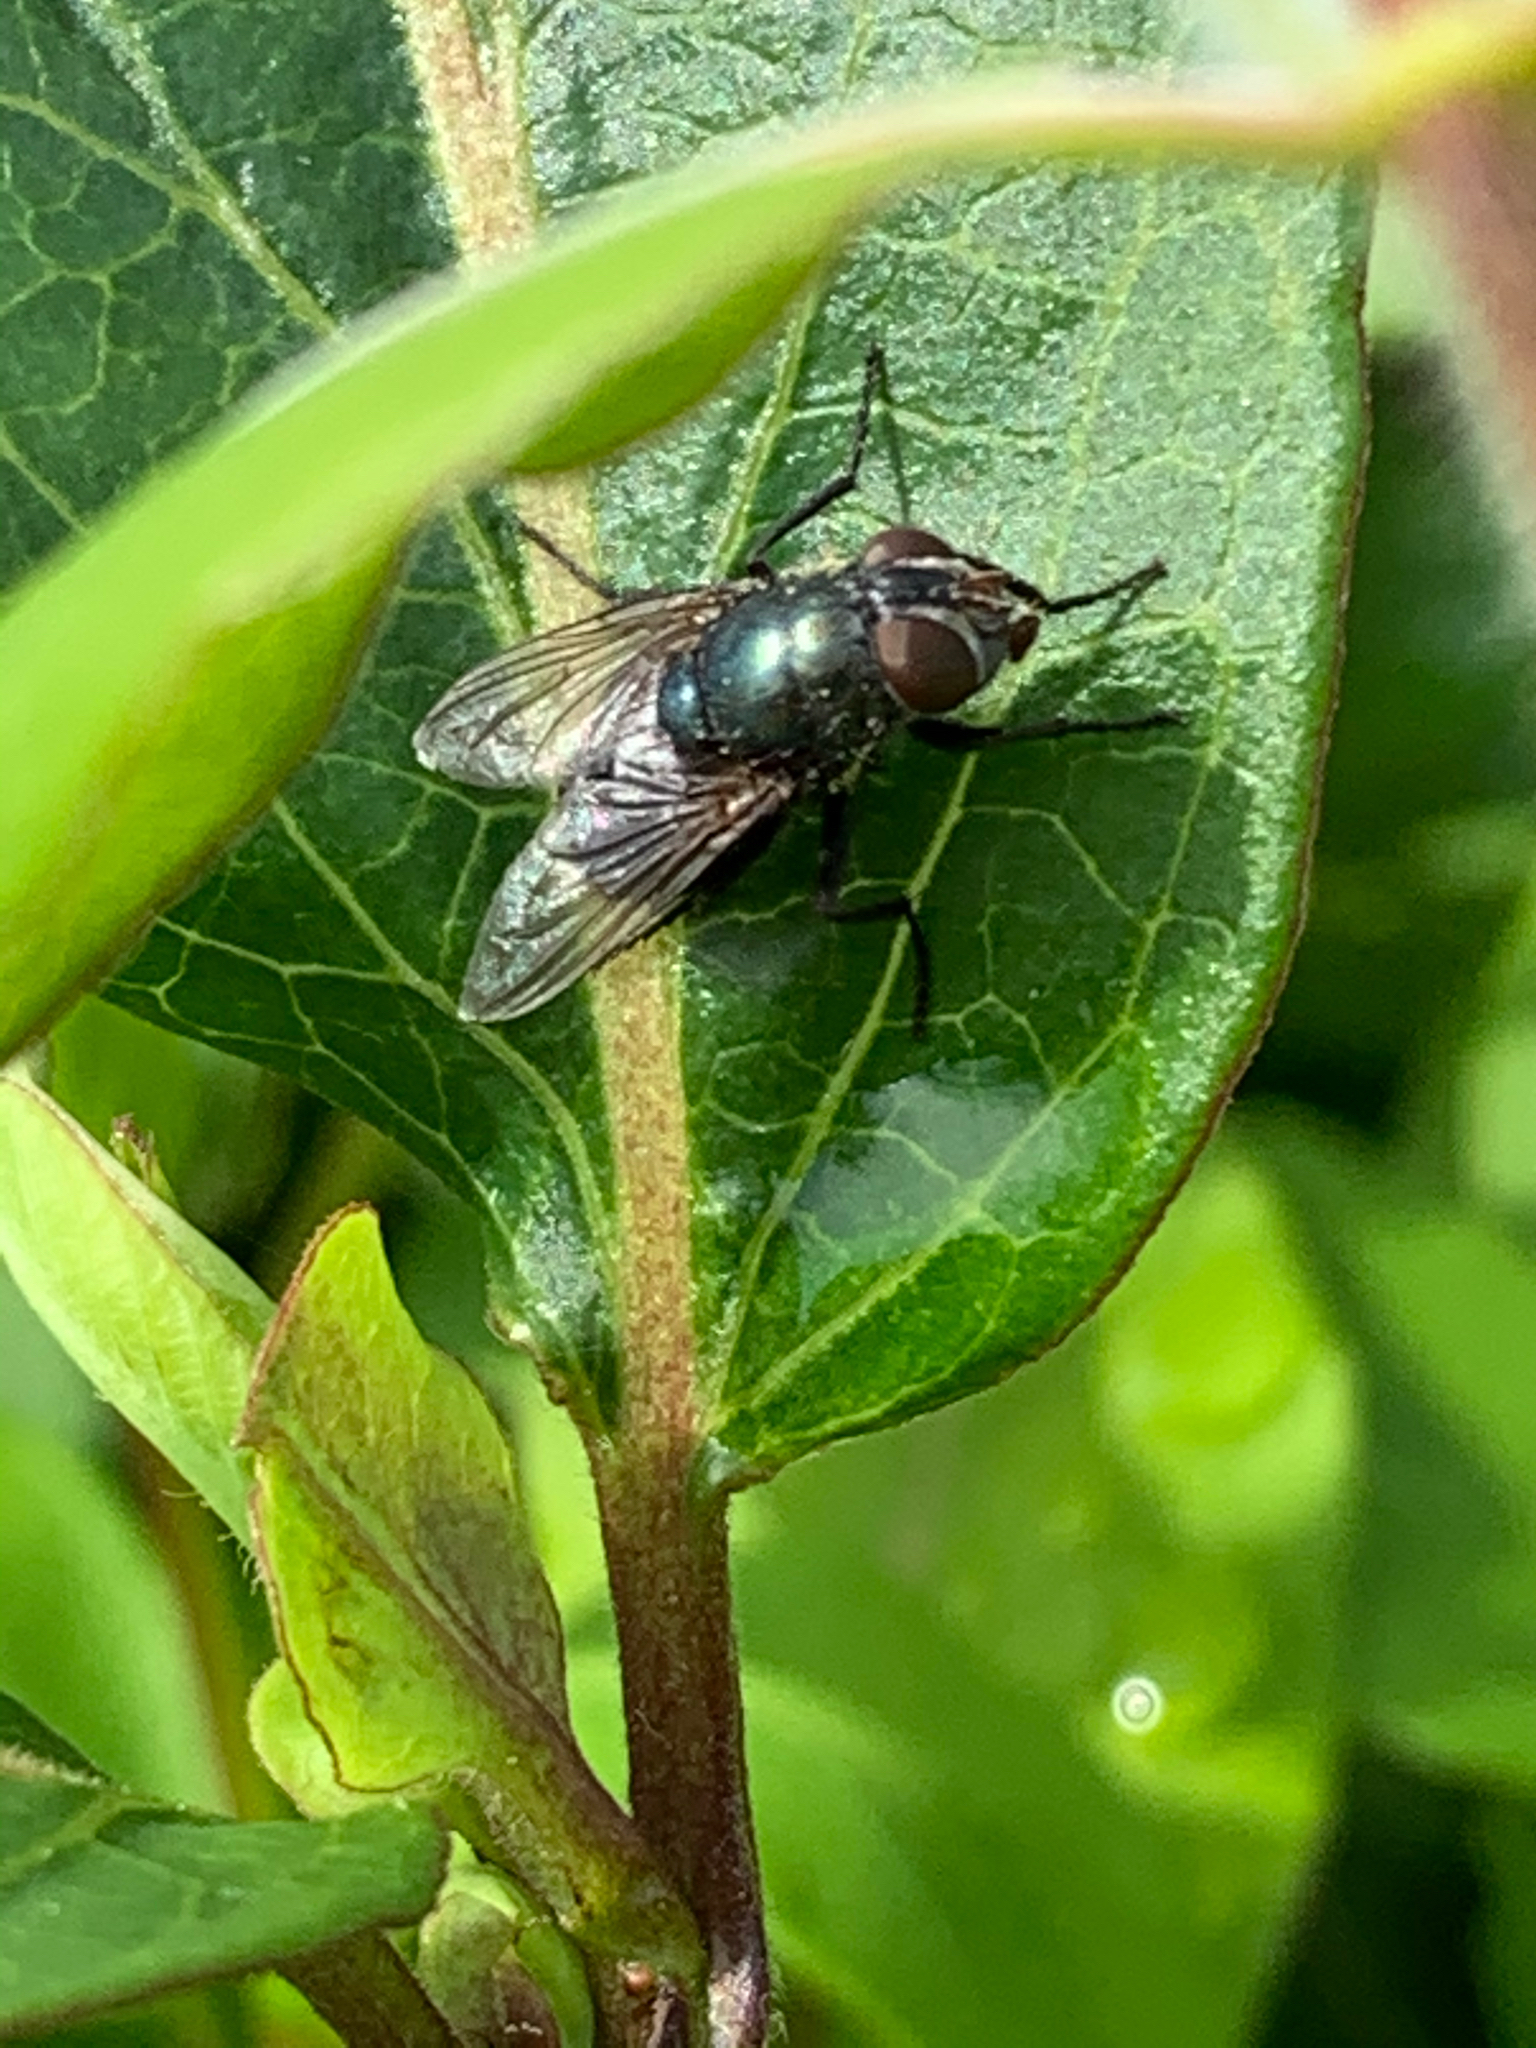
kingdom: Animalia
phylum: Arthropoda
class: Insecta
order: Diptera
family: Calliphoridae
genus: Phormia
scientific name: Phormia regina
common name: Black blow fly
